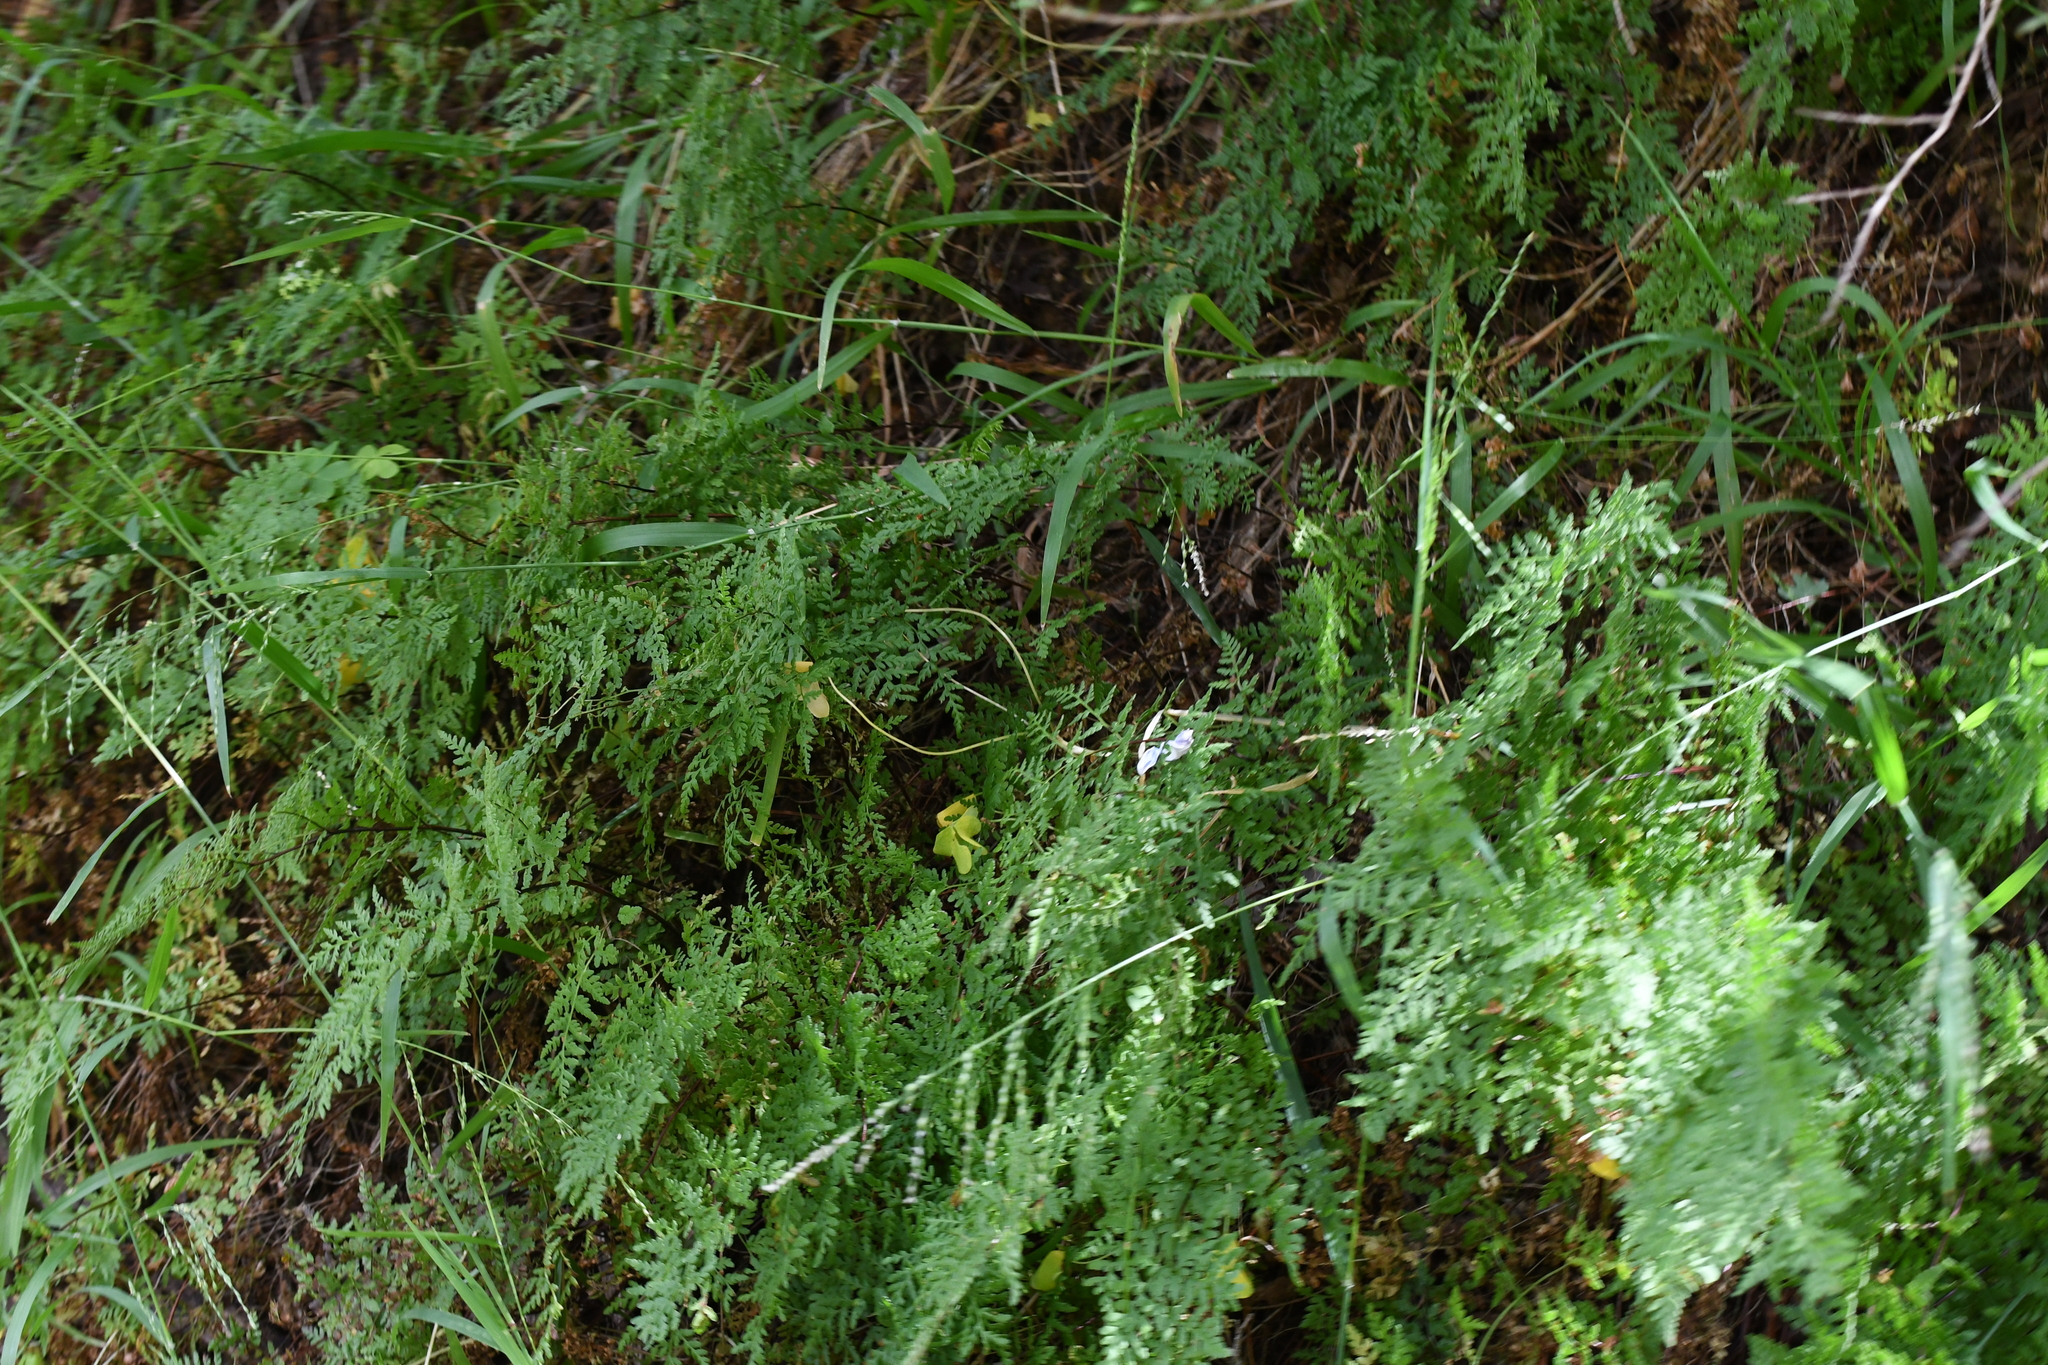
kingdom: Plantae
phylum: Tracheophyta
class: Polypodiopsida
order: Polypodiales
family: Pteridaceae
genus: Cheilanthes
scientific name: Cheilanthes austrotenuifolia
